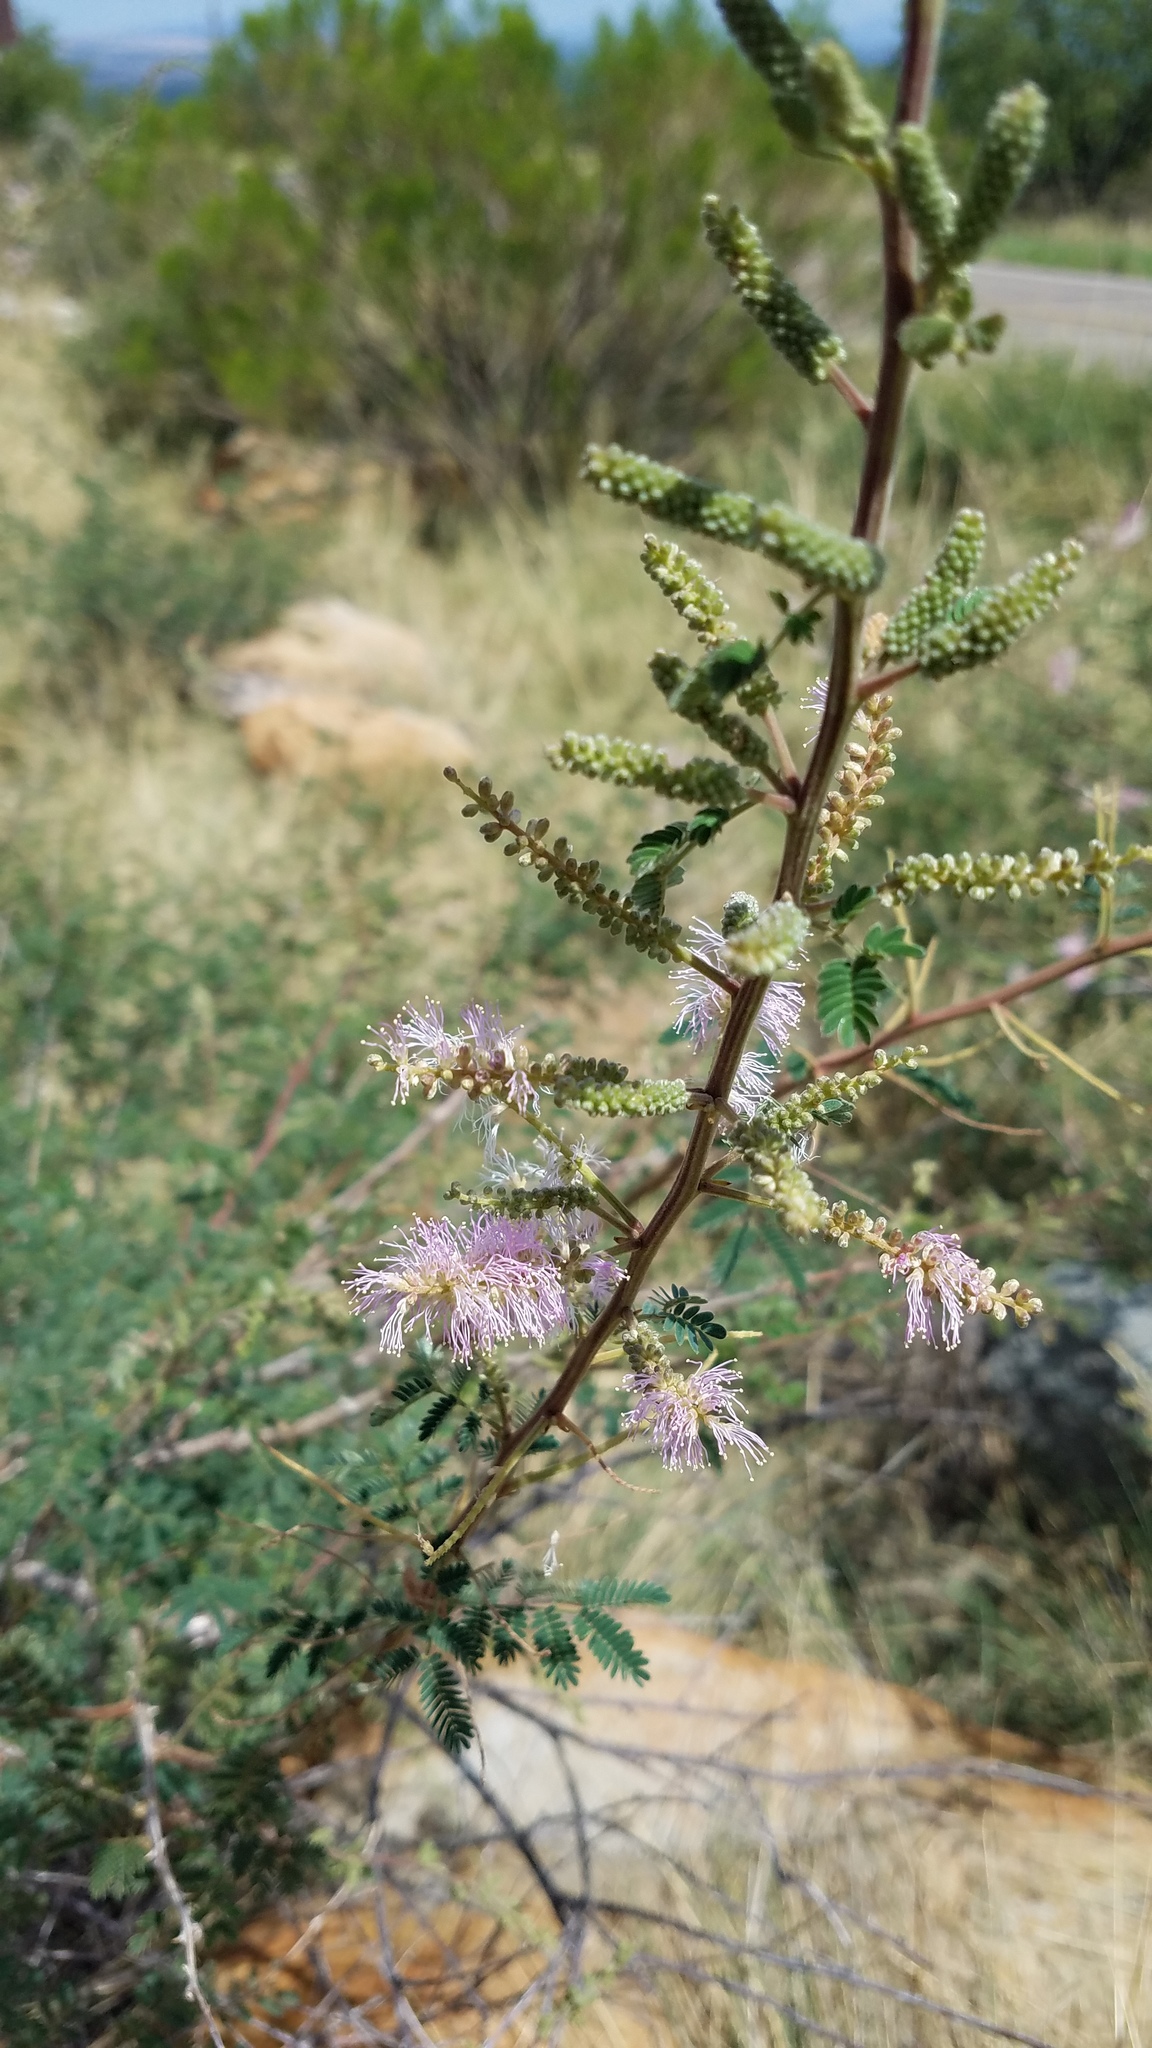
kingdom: Plantae
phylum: Tracheophyta
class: Magnoliopsida
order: Fabales
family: Fabaceae
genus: Mimosa
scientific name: Mimosa dysocarpa
